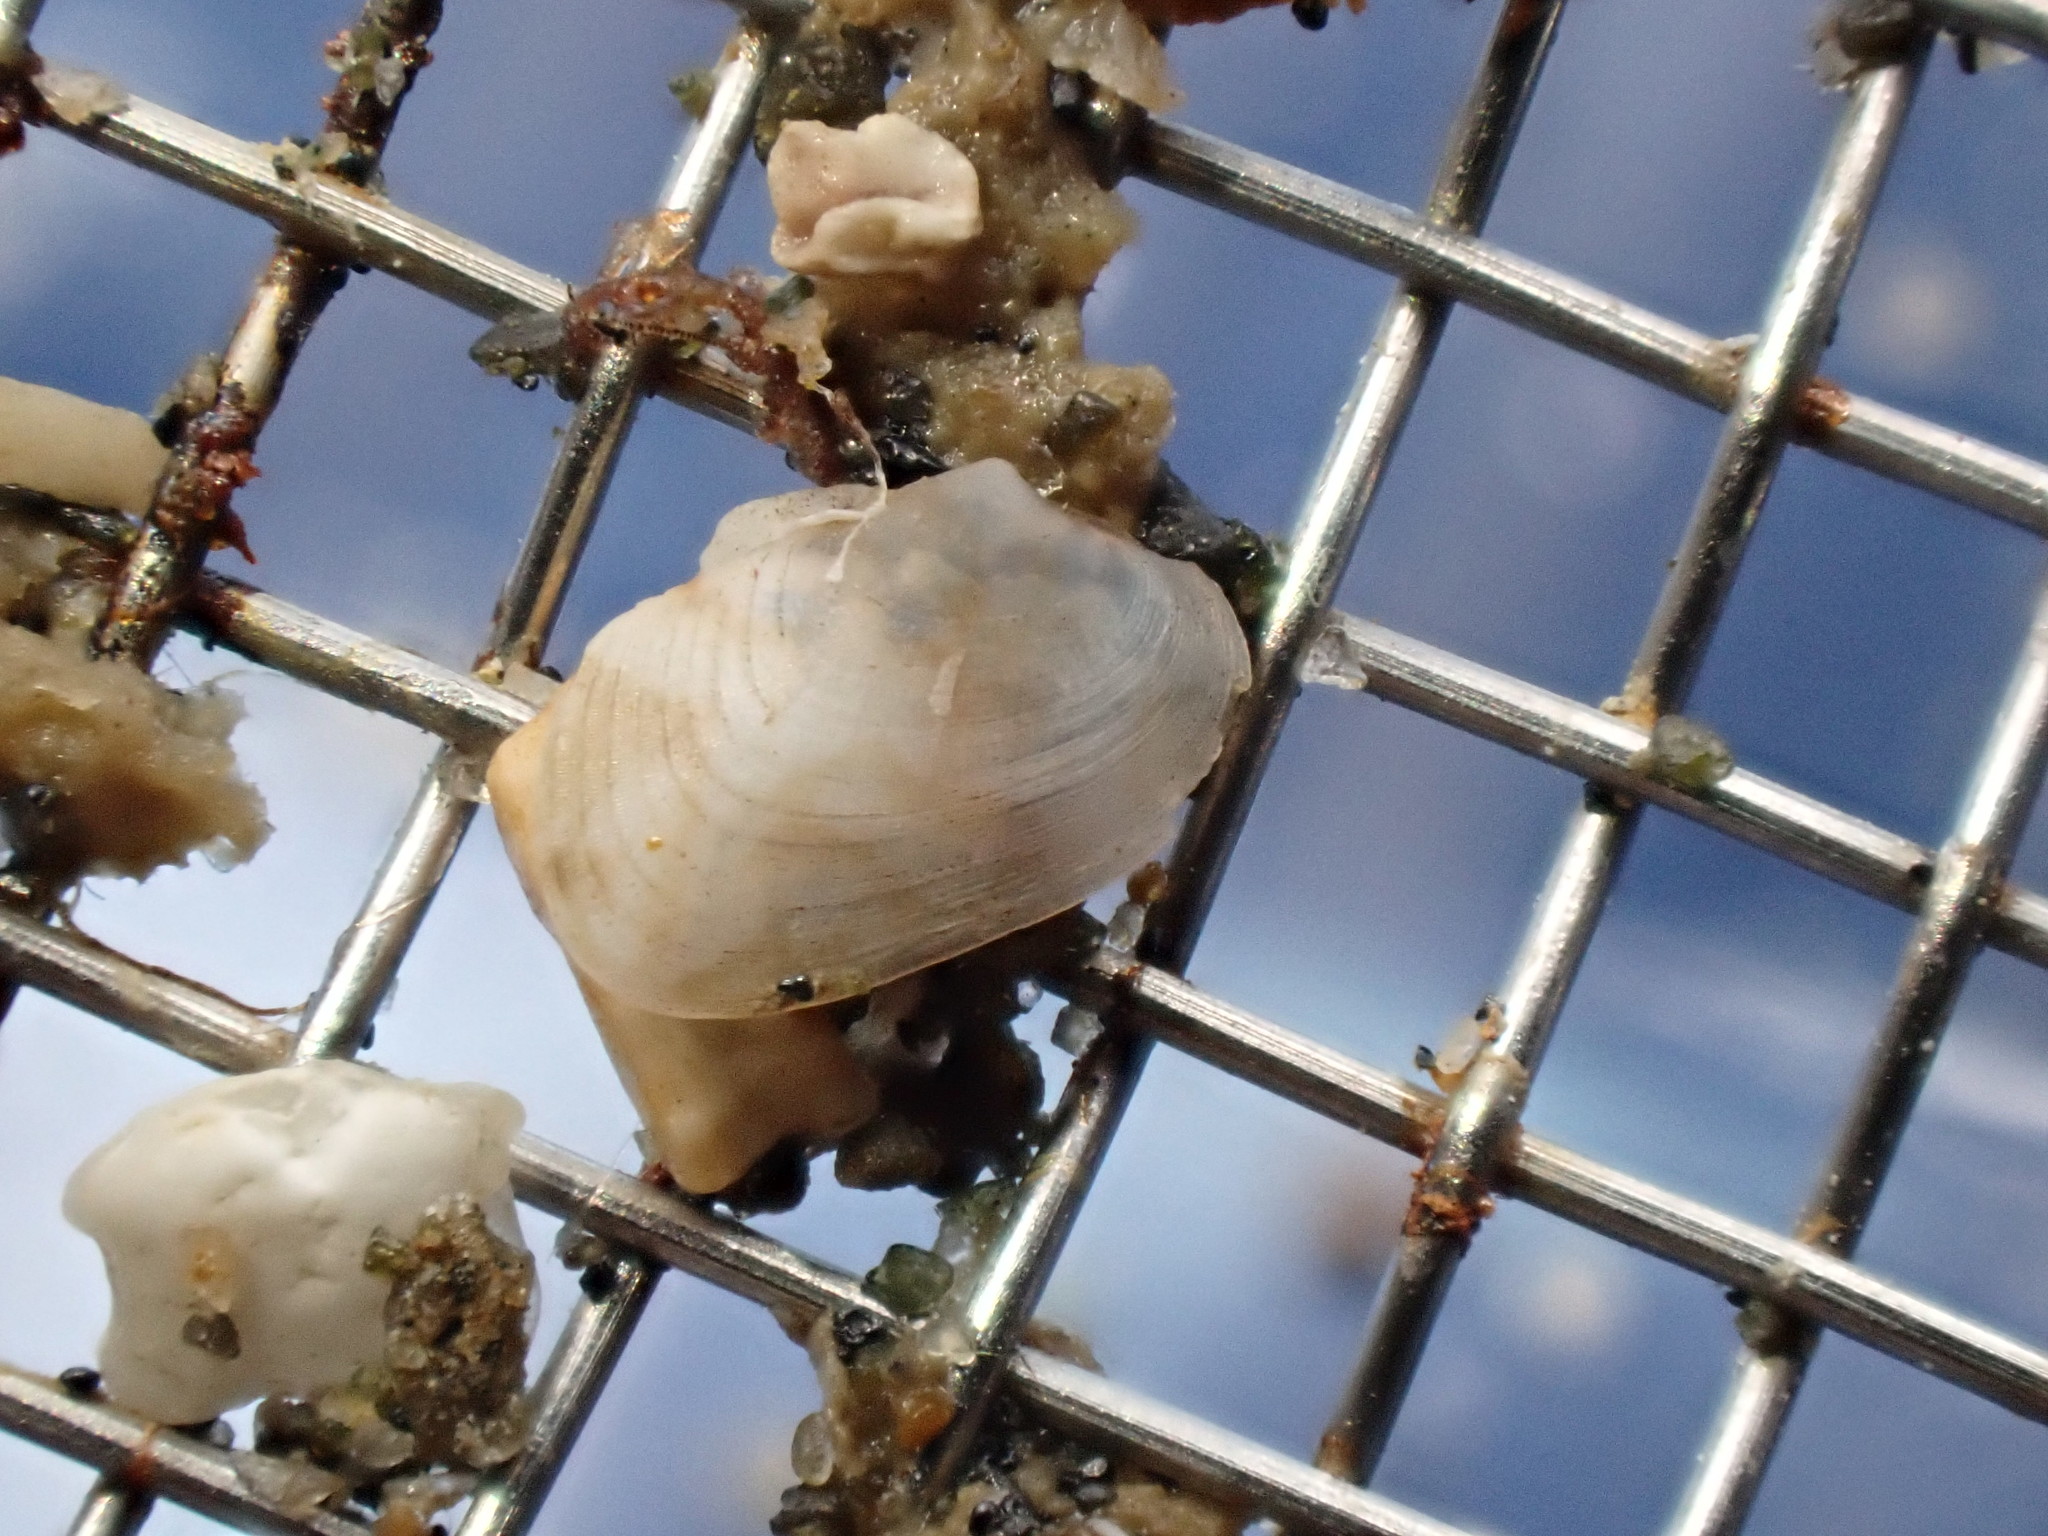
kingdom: Animalia
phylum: Mollusca
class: Bivalvia
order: Venerida
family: Veneridae
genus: Irus
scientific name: Irus reflexus
